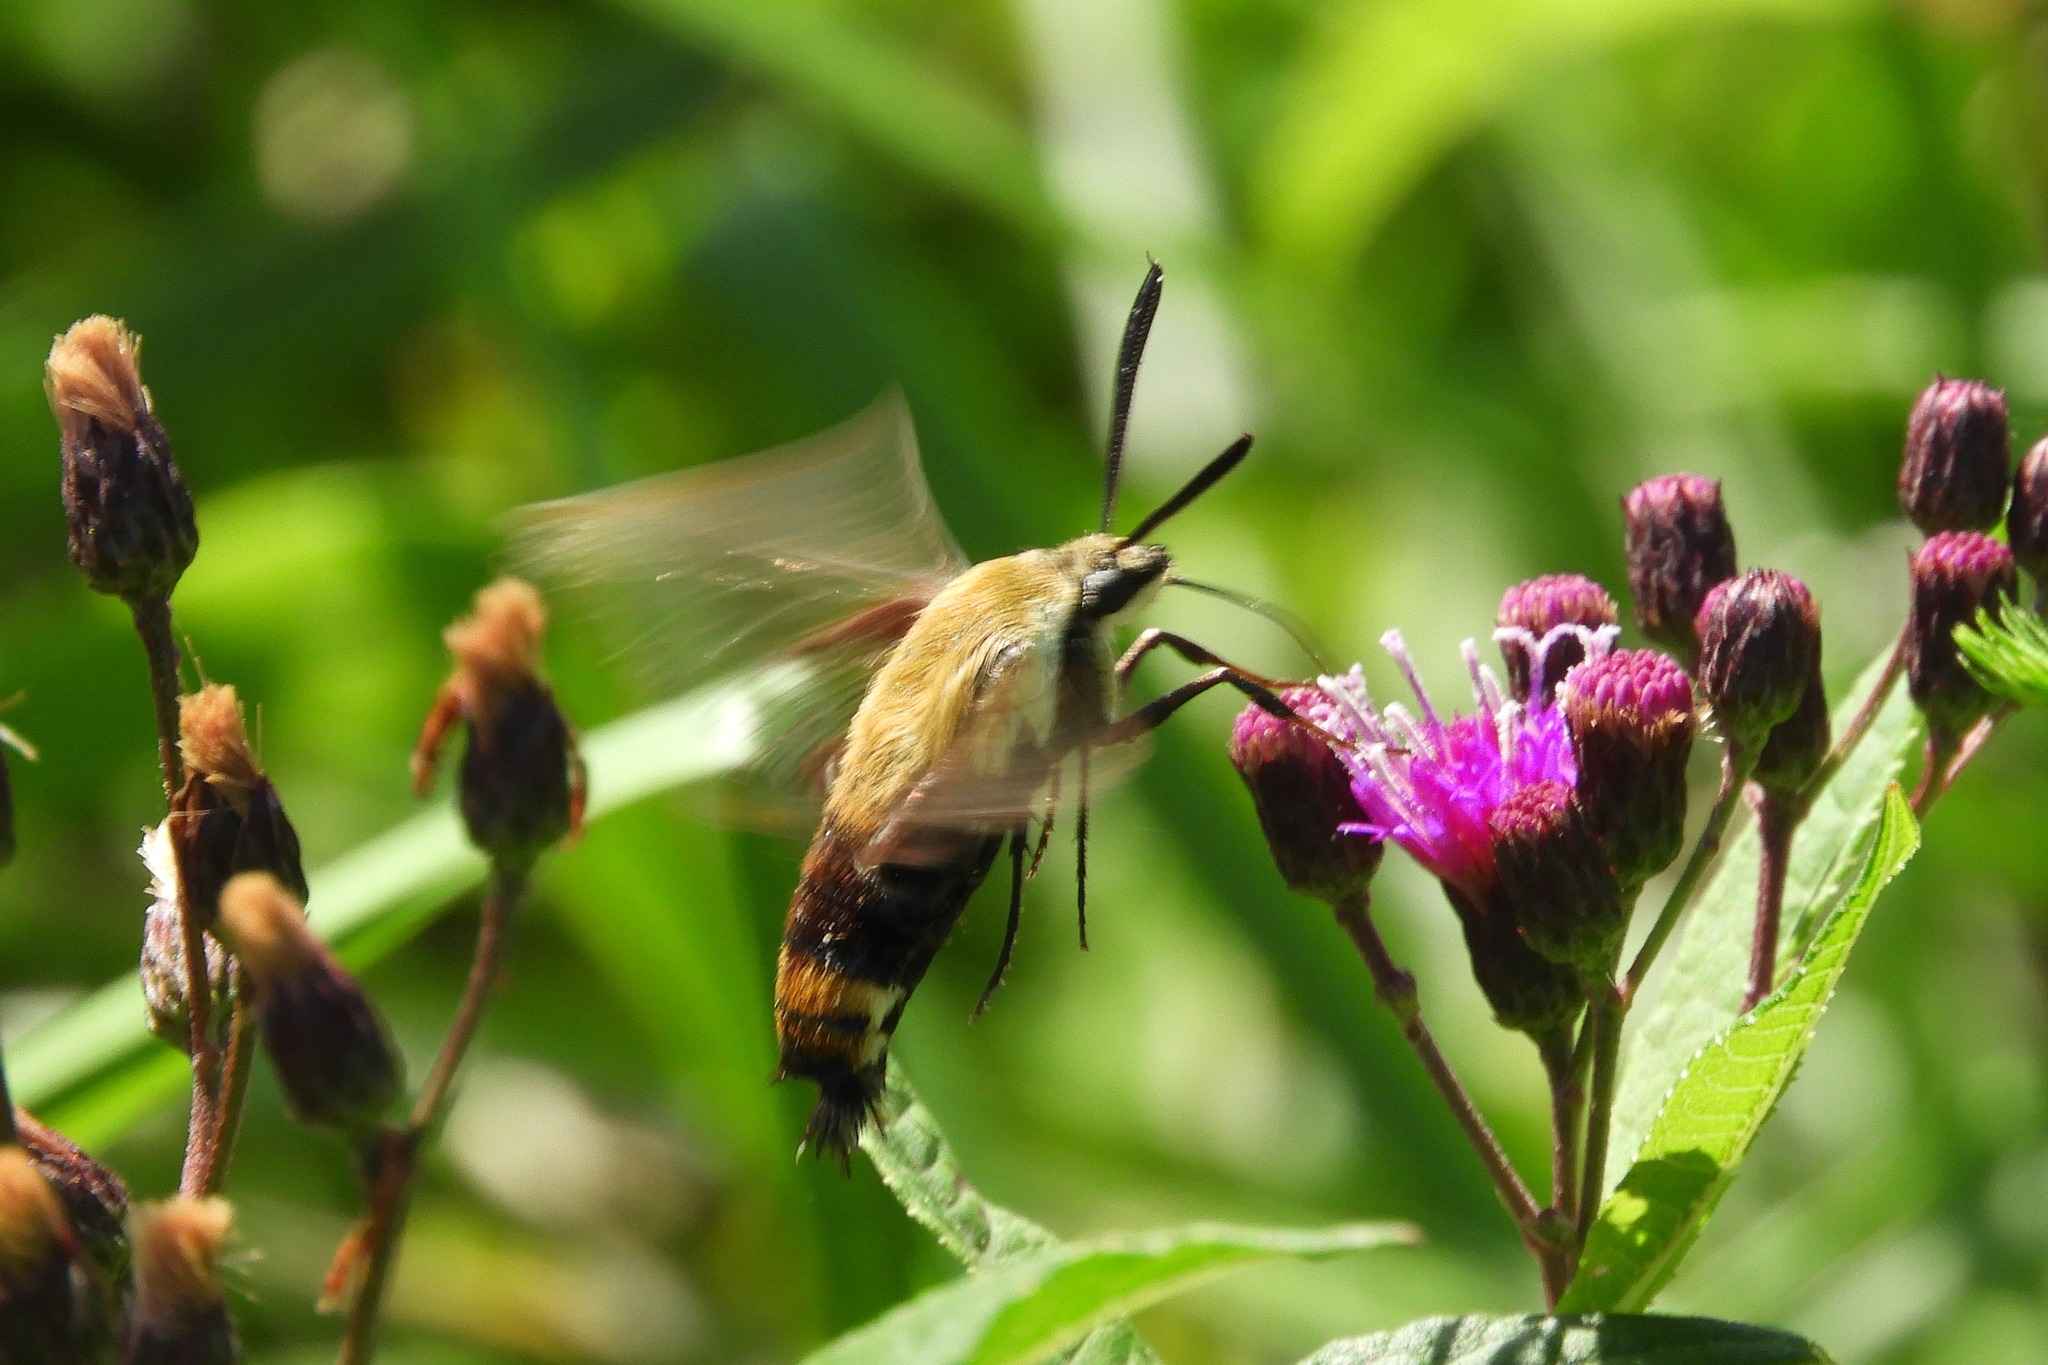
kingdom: Animalia
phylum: Arthropoda
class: Insecta
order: Lepidoptera
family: Sphingidae
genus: Hemaris
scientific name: Hemaris diffinis
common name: Bumblebee moth
